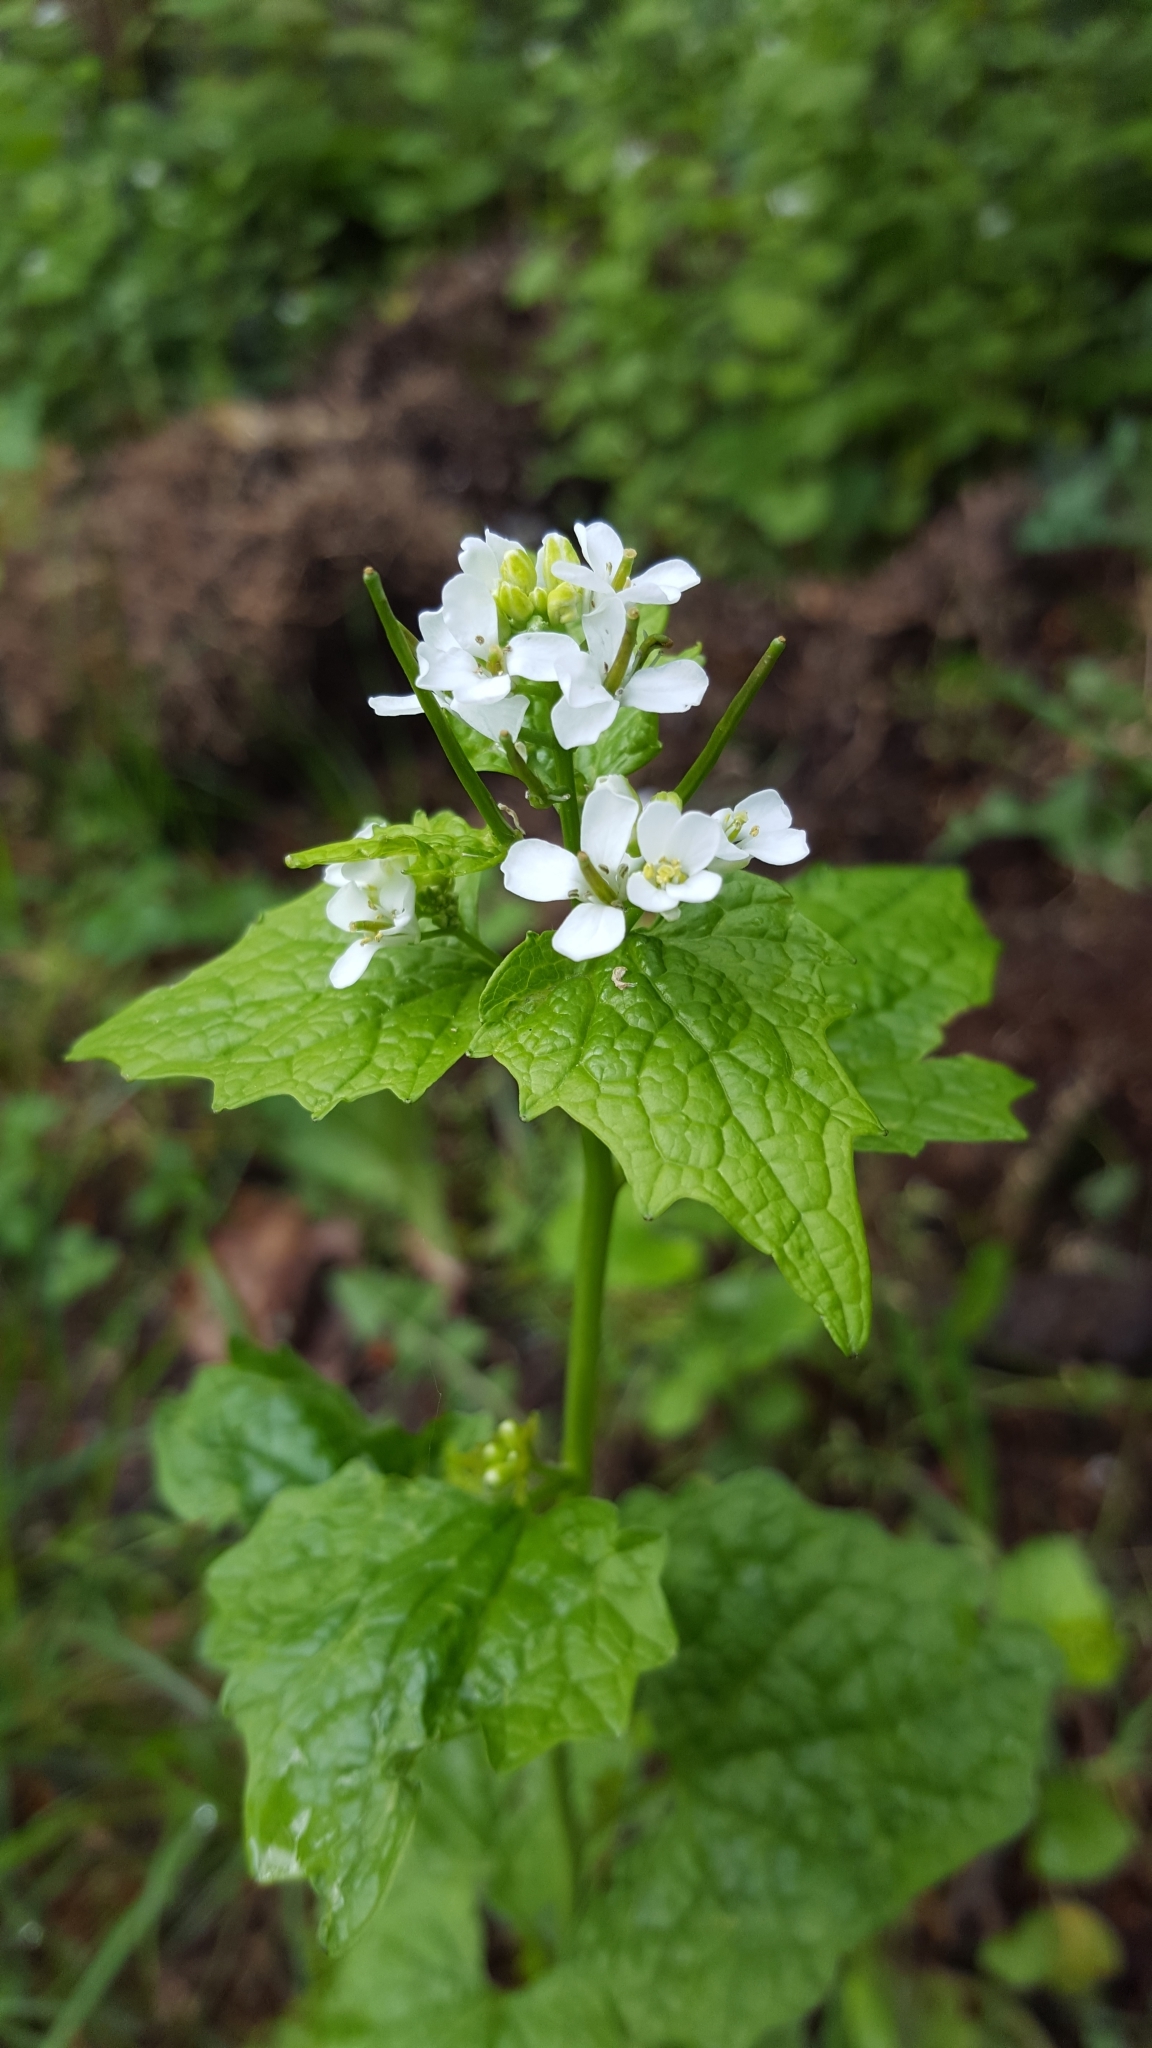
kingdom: Plantae
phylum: Tracheophyta
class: Magnoliopsida
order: Brassicales
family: Brassicaceae
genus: Alliaria
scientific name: Alliaria petiolata
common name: Garlic mustard
